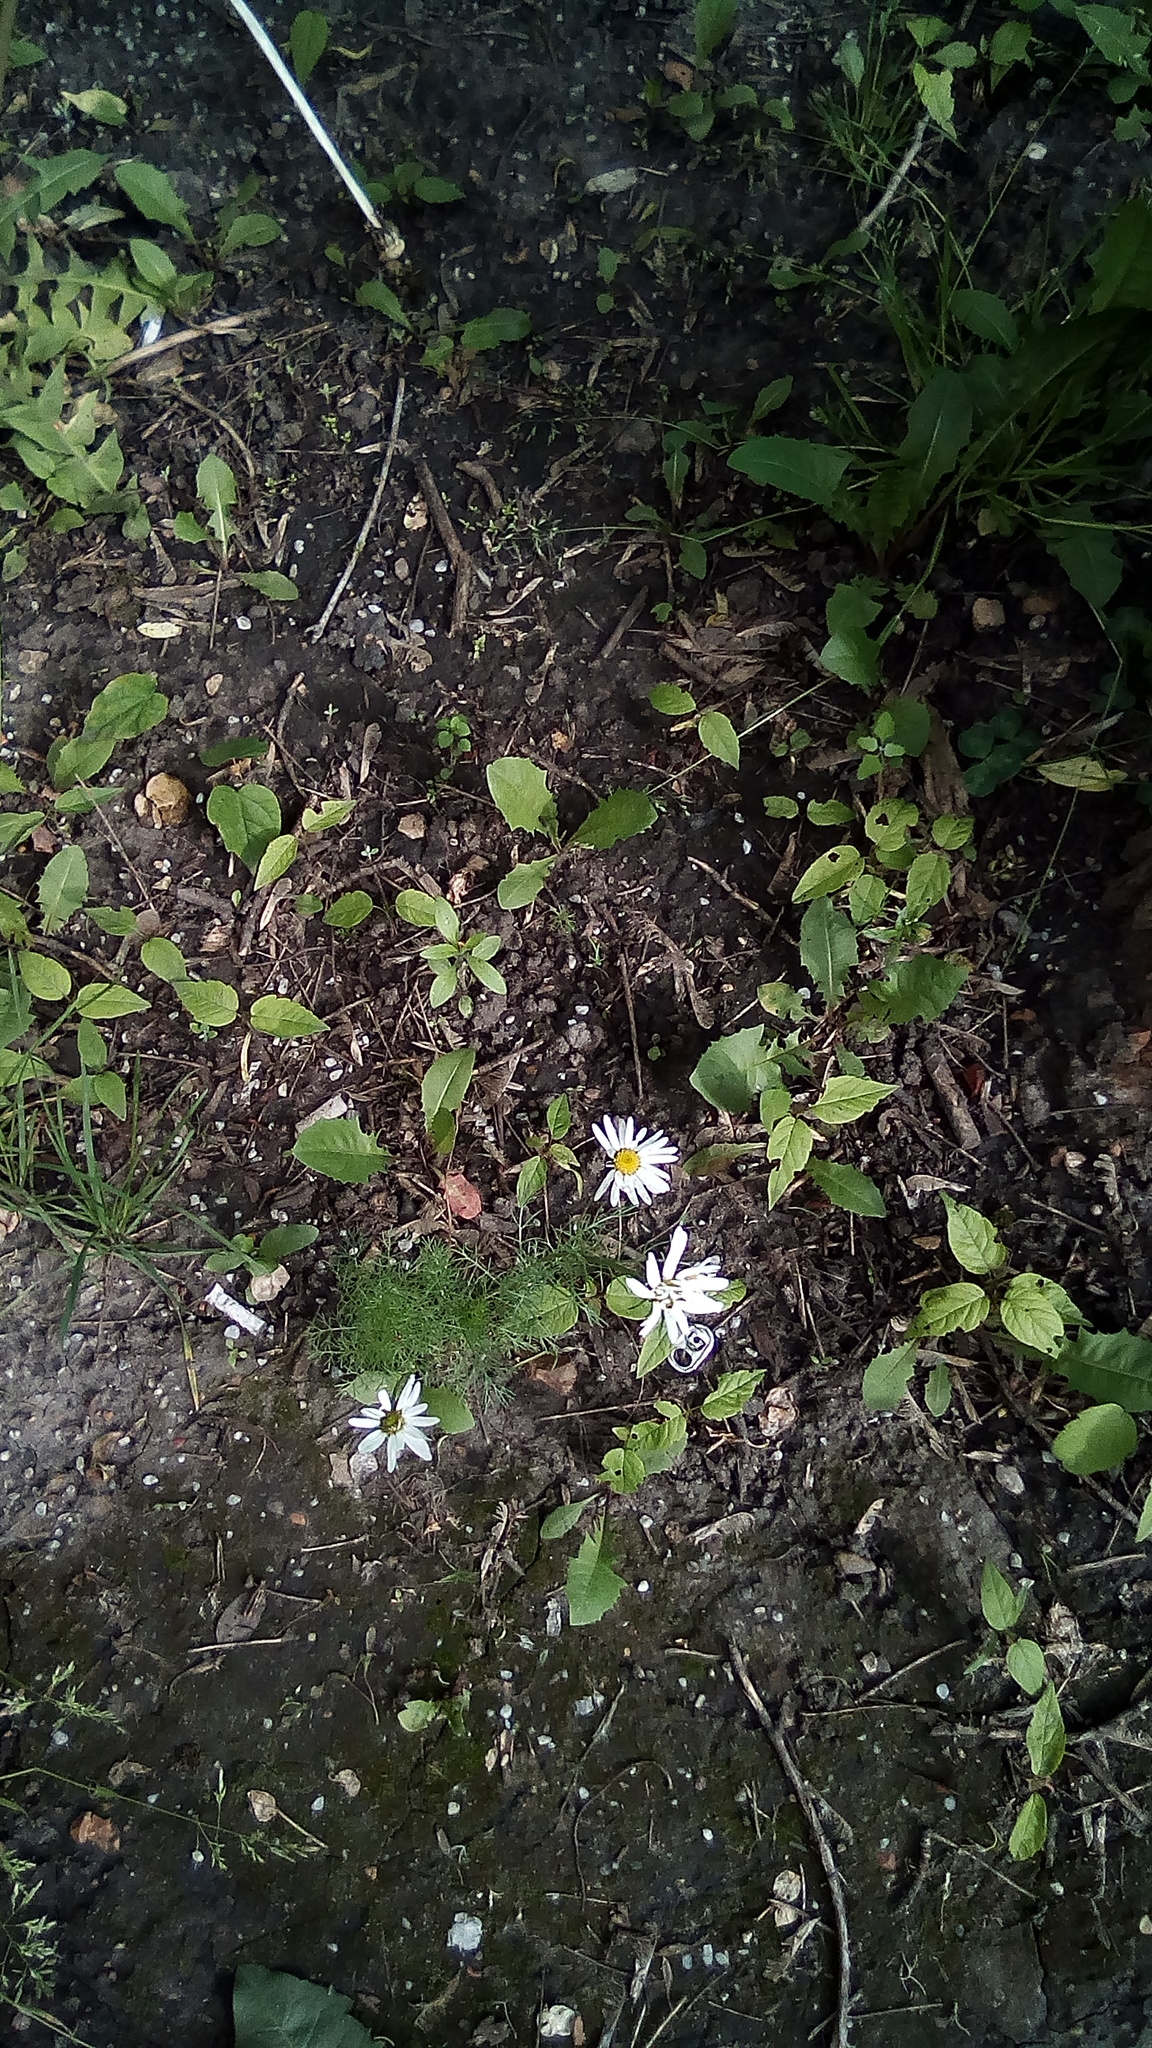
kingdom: Plantae
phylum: Tracheophyta
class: Magnoliopsida
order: Asterales
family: Asteraceae
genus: Tripleurospermum
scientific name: Tripleurospermum inodorum
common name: Scentless mayweed
